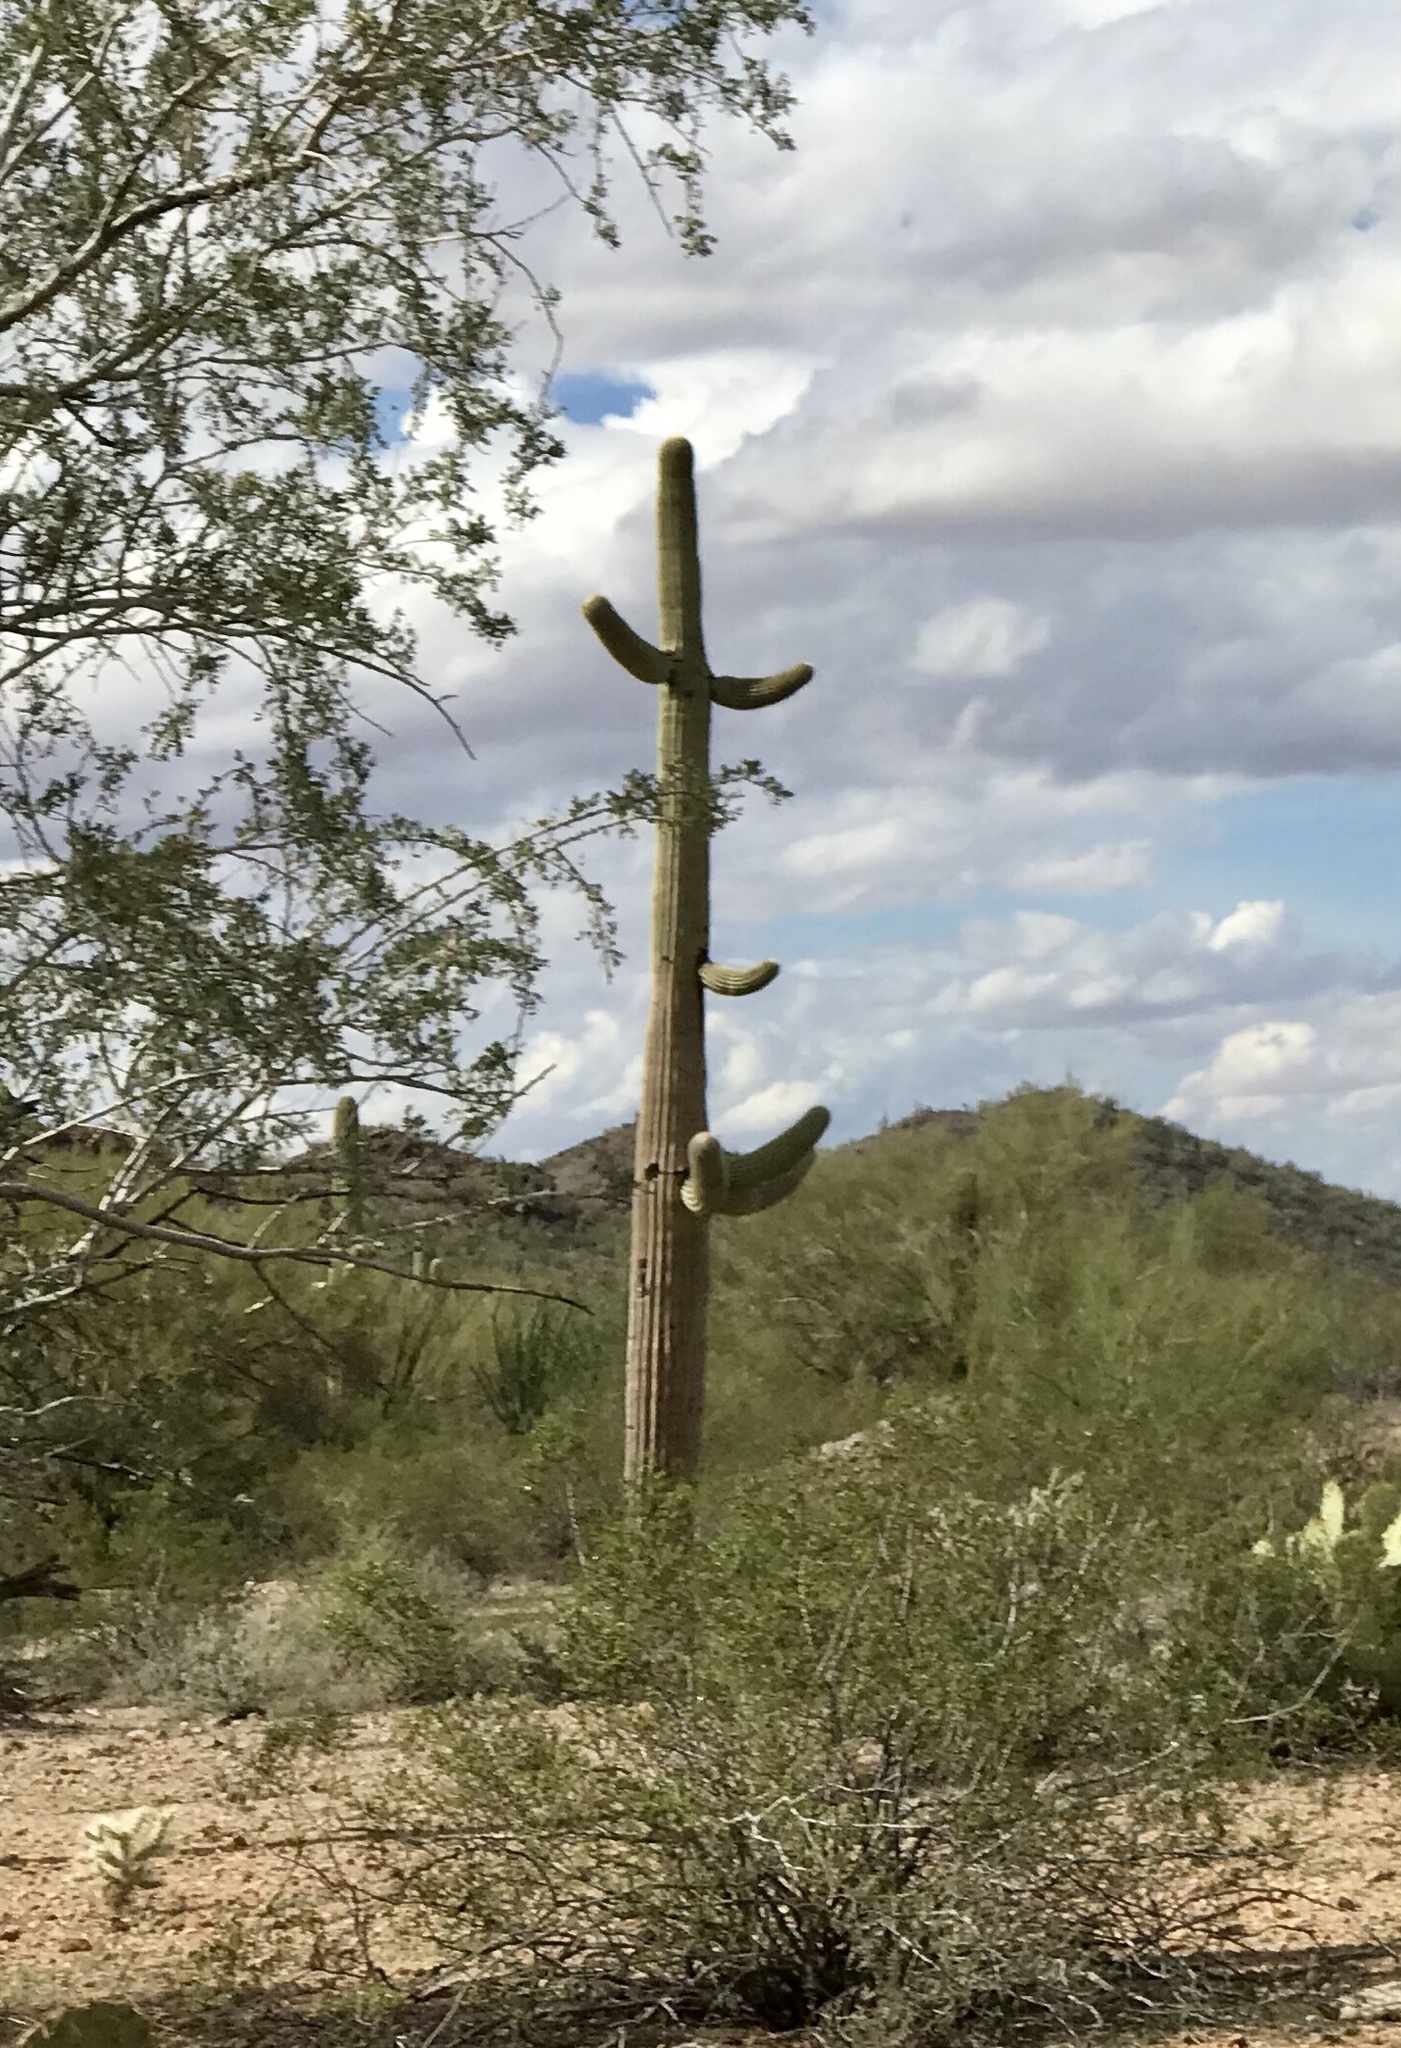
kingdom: Plantae
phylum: Tracheophyta
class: Magnoliopsida
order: Caryophyllales
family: Cactaceae
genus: Carnegiea
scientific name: Carnegiea gigantea
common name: Saguaro
